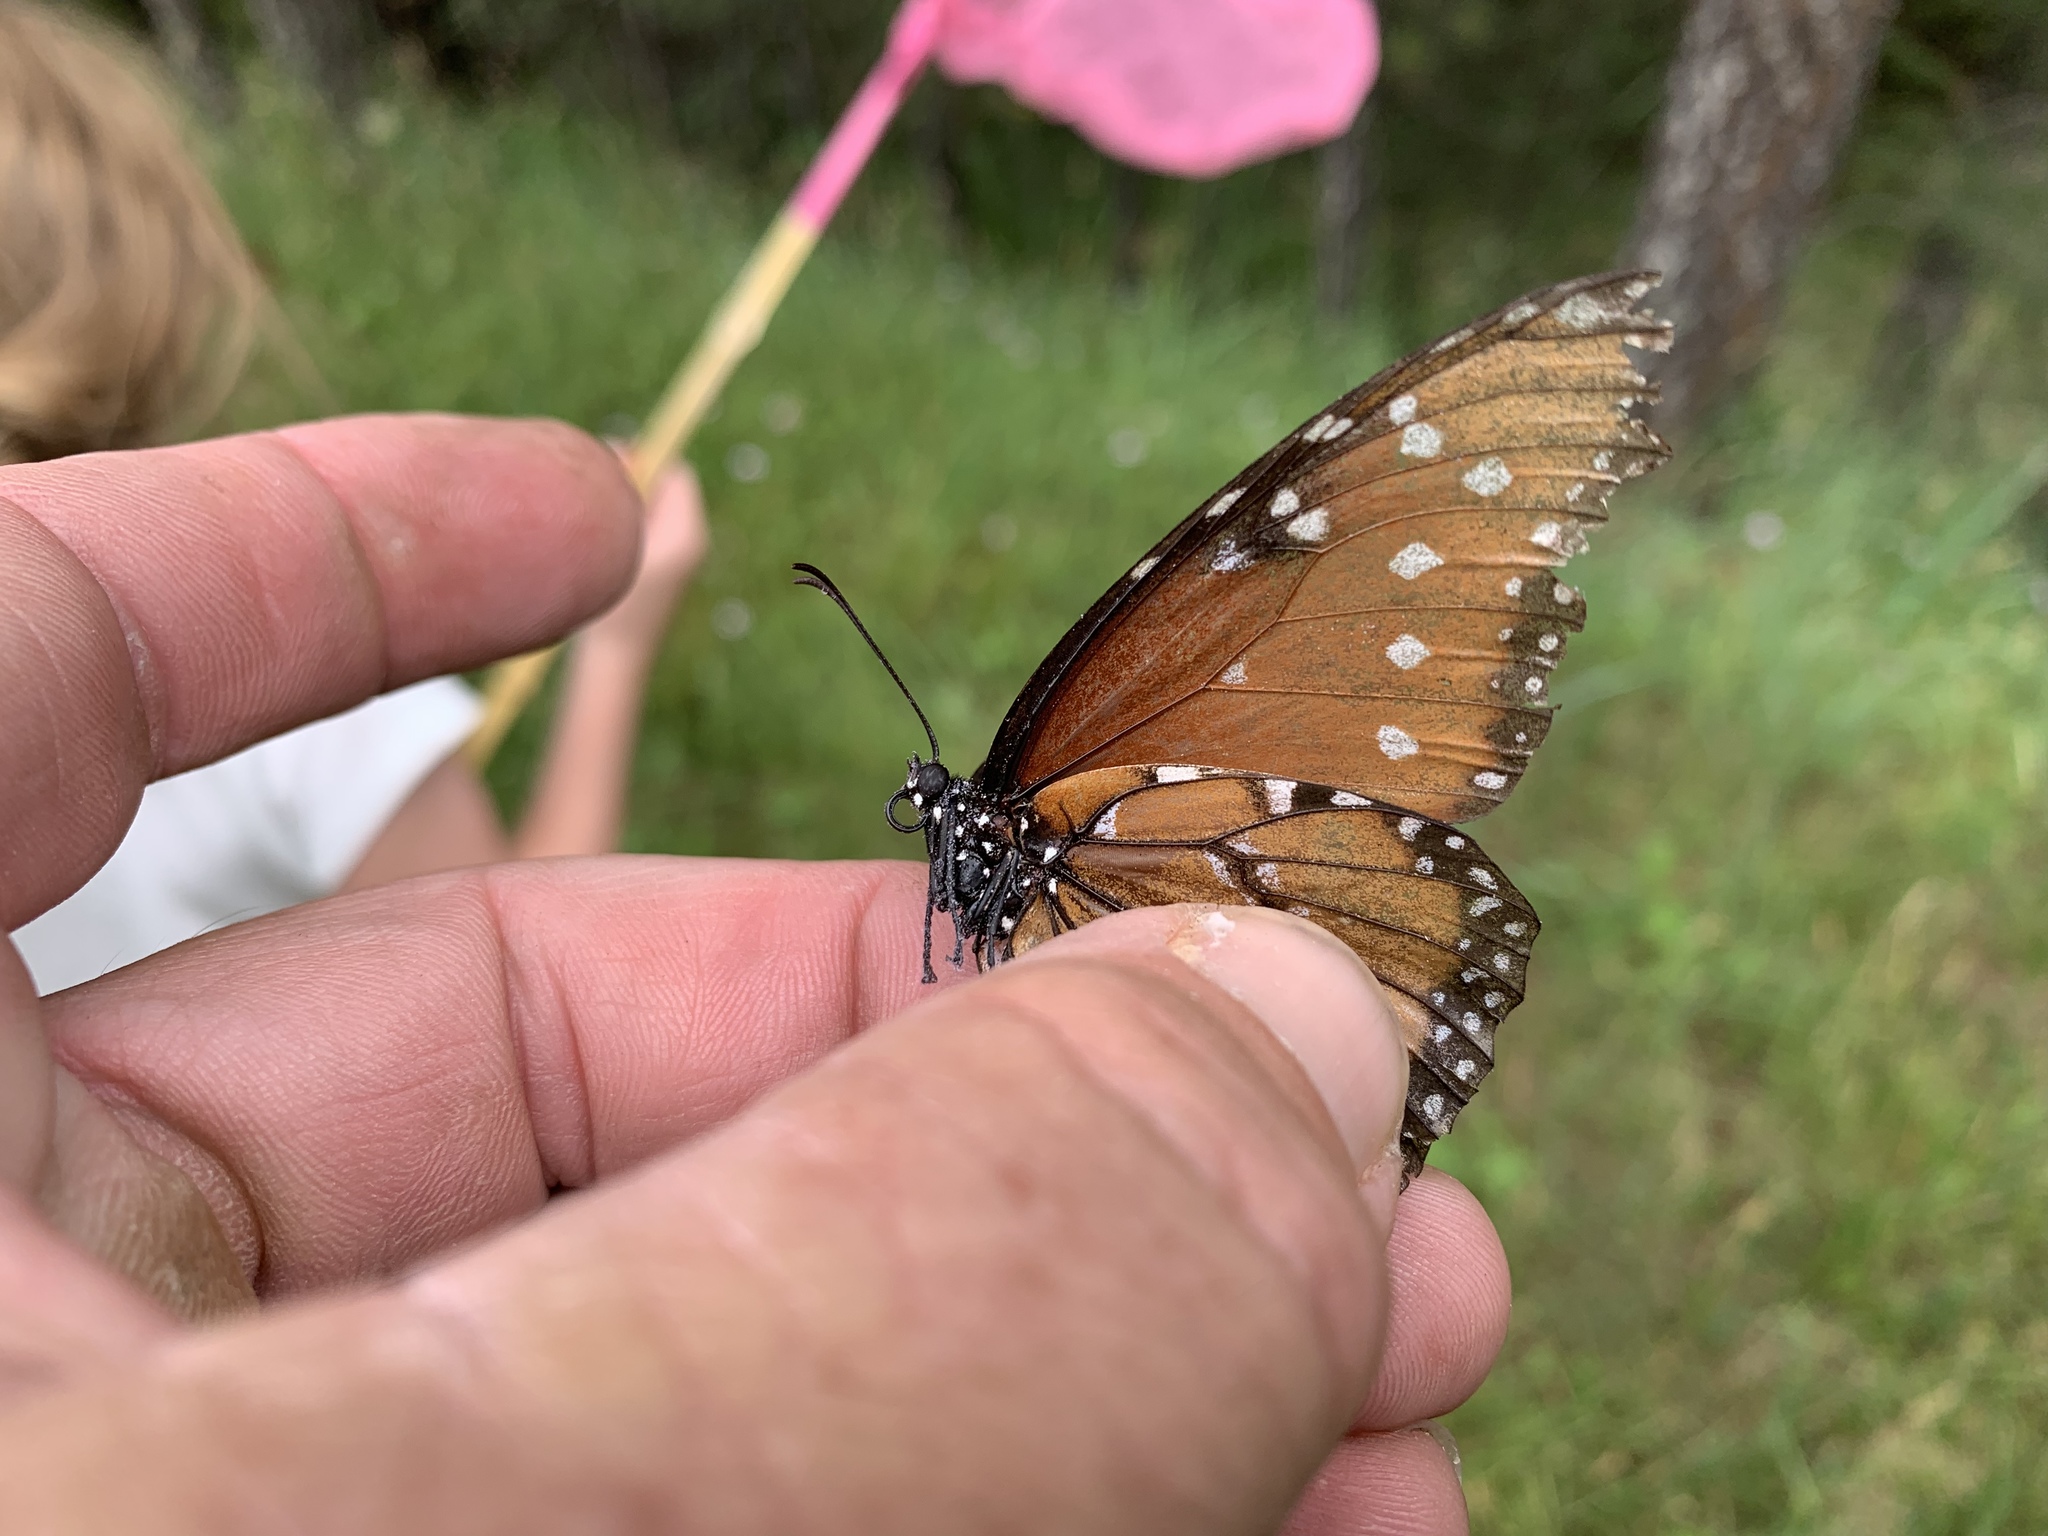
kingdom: Animalia
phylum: Arthropoda
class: Insecta
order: Lepidoptera
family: Nymphalidae
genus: Danaus
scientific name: Danaus gilippus
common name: Queen
